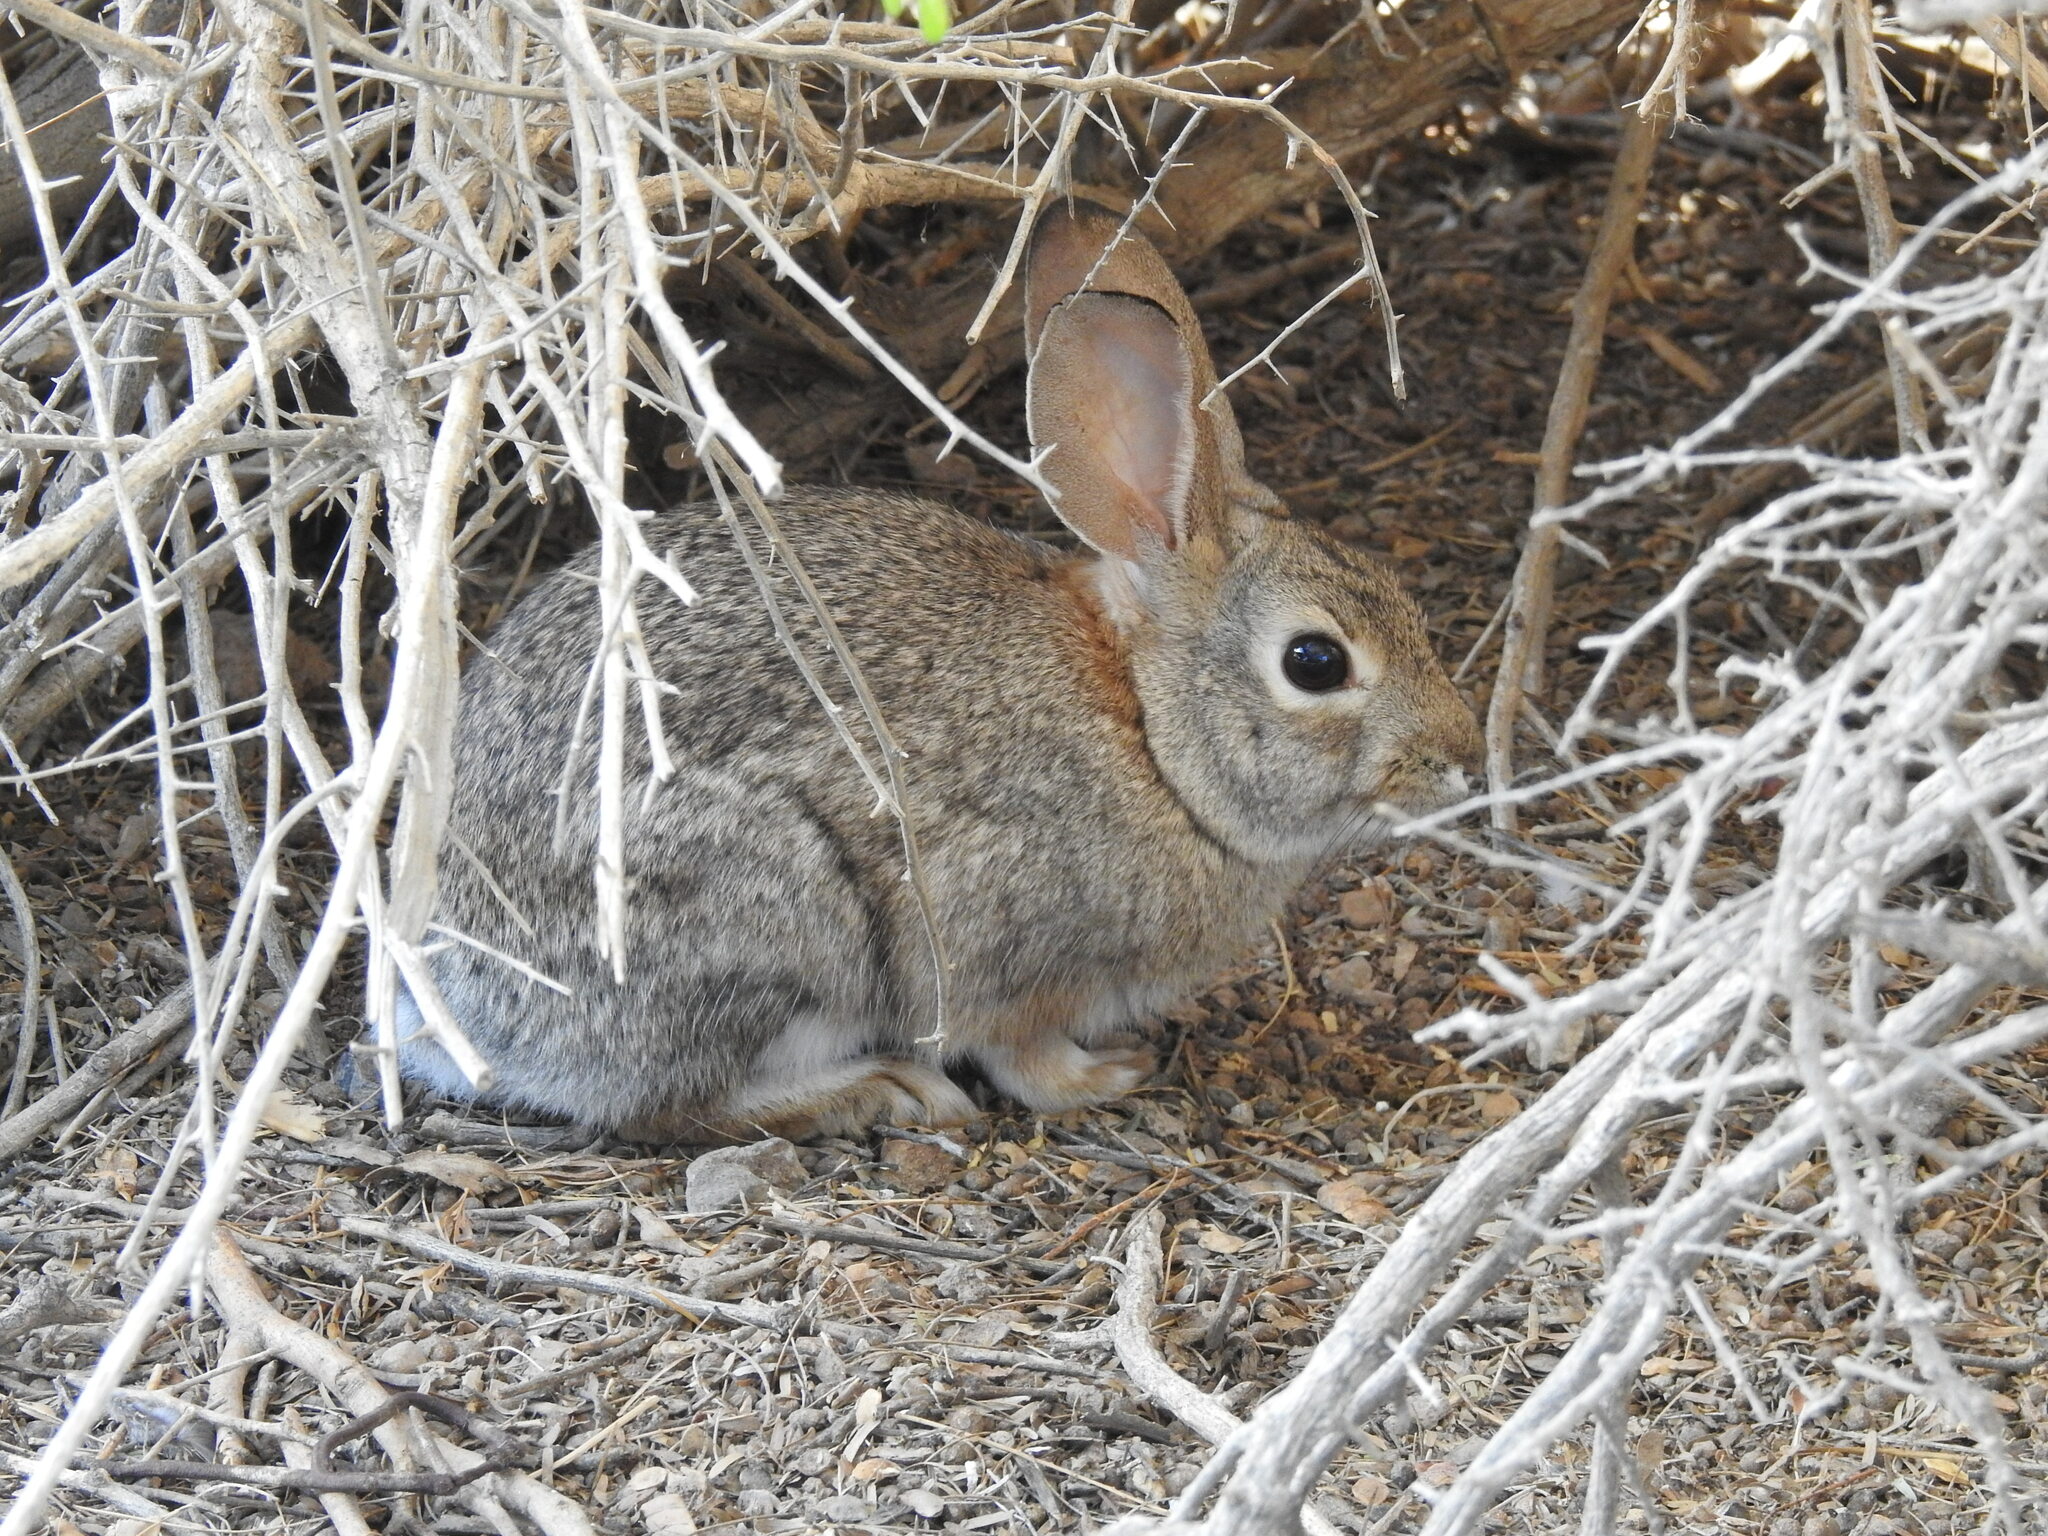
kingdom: Animalia
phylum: Chordata
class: Mammalia
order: Lagomorpha
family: Leporidae
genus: Sylvilagus
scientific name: Sylvilagus audubonii
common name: Desert cottontail
